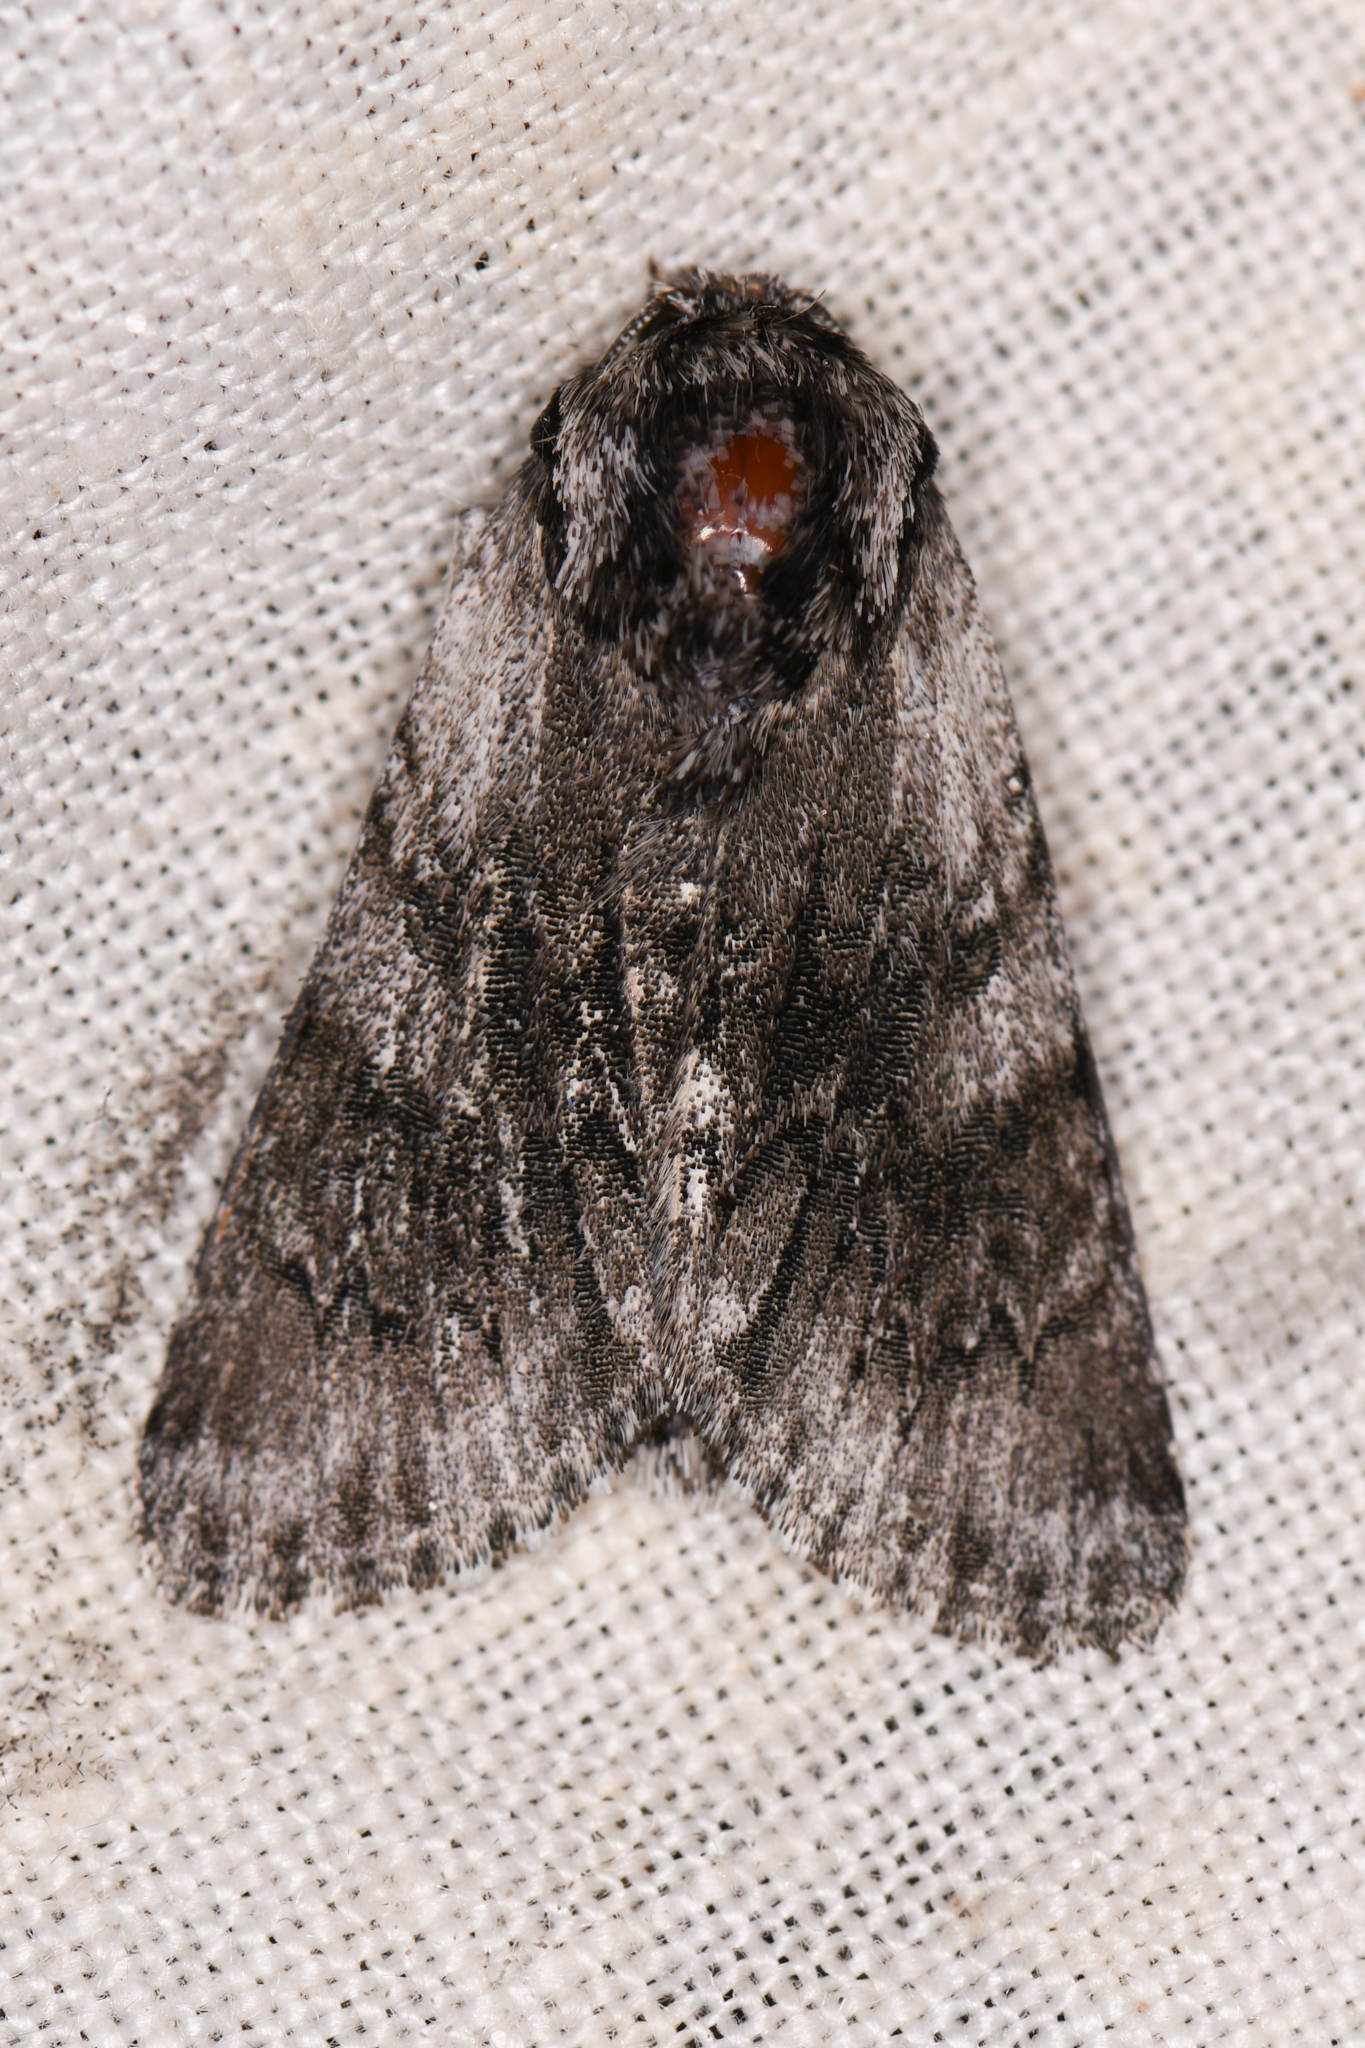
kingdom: Animalia
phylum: Arthropoda
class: Insecta
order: Lepidoptera
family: Noctuidae
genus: Acronicta
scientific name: Acronicta othello
